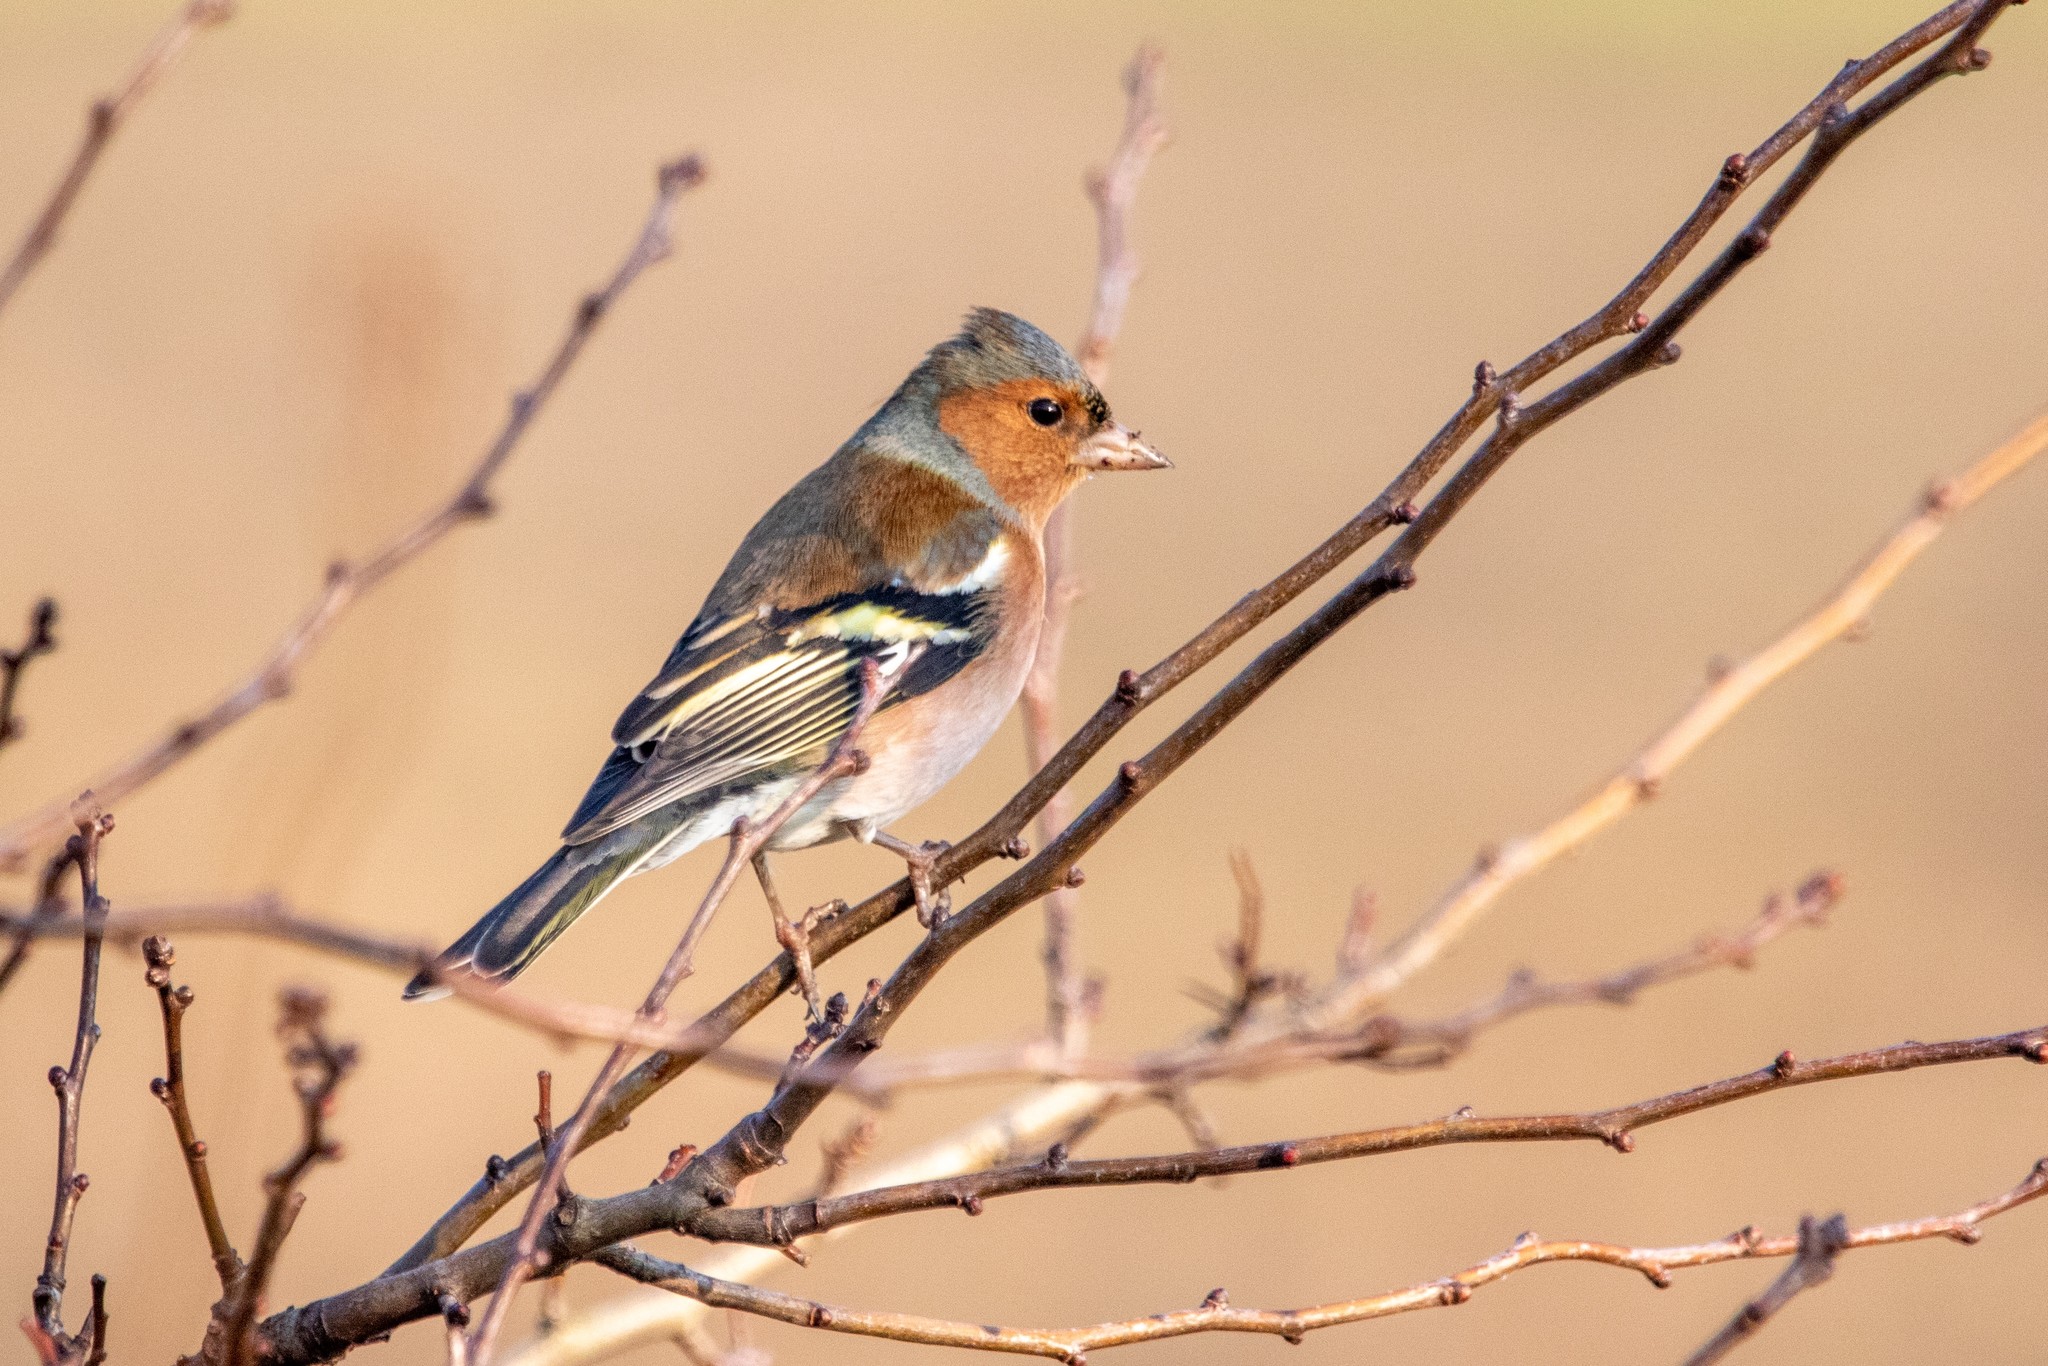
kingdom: Animalia
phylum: Chordata
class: Aves
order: Passeriformes
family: Fringillidae
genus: Fringilla
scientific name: Fringilla coelebs
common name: Common chaffinch
